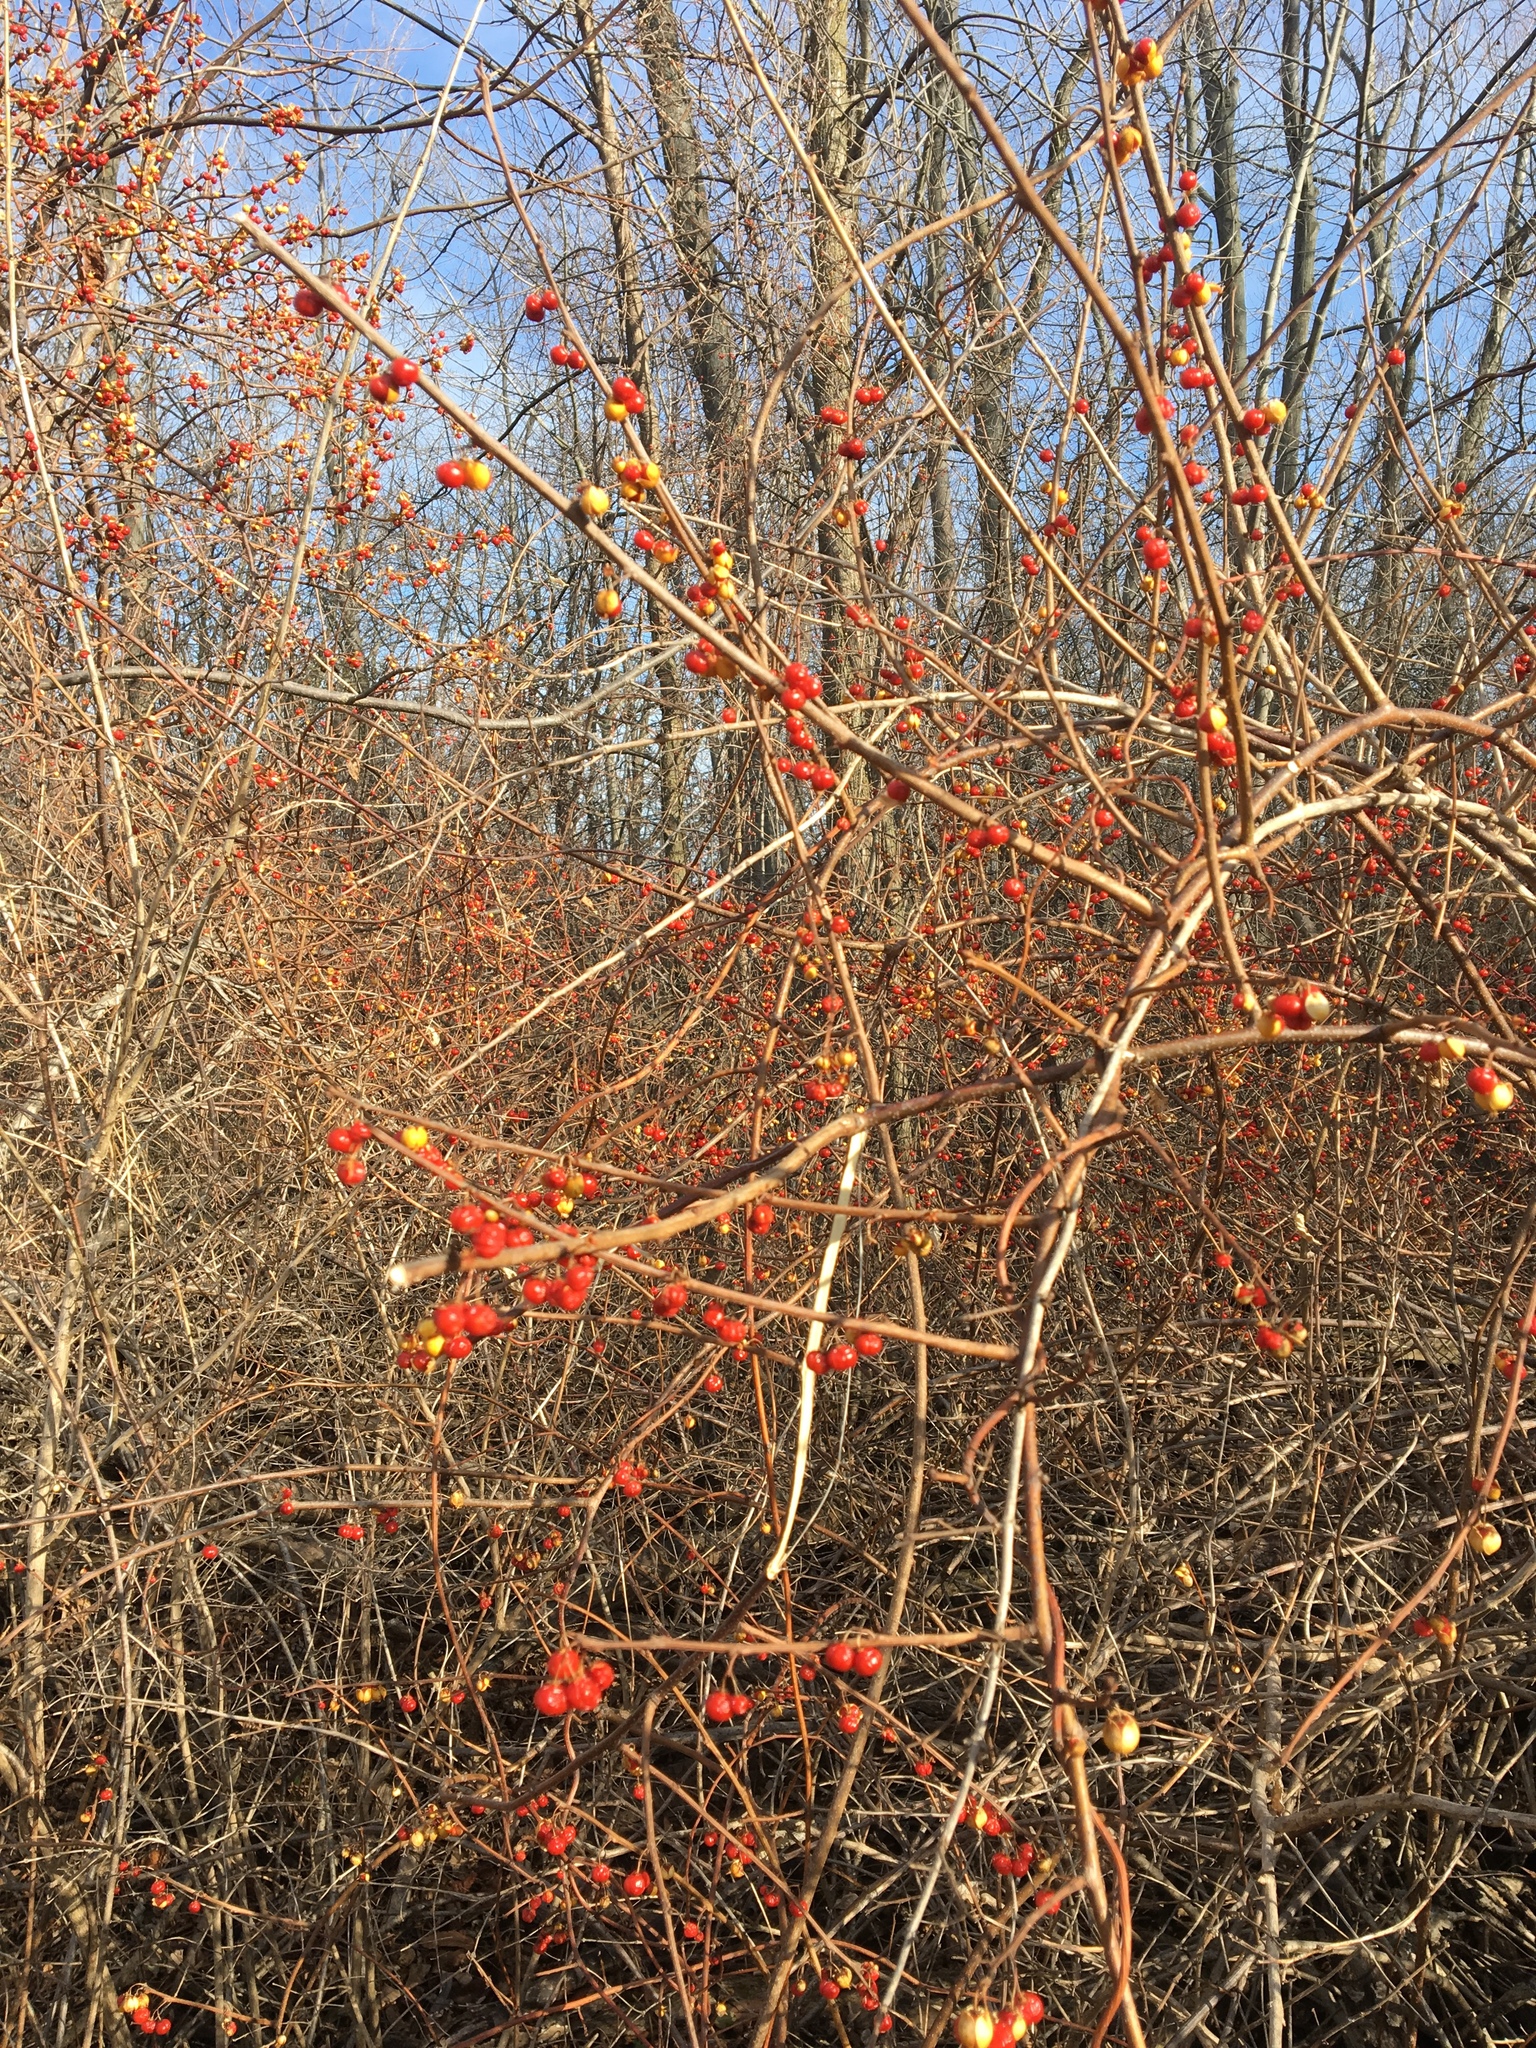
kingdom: Plantae
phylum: Tracheophyta
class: Magnoliopsida
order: Celastrales
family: Celastraceae
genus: Celastrus
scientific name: Celastrus orbiculatus
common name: Oriental bittersweet
